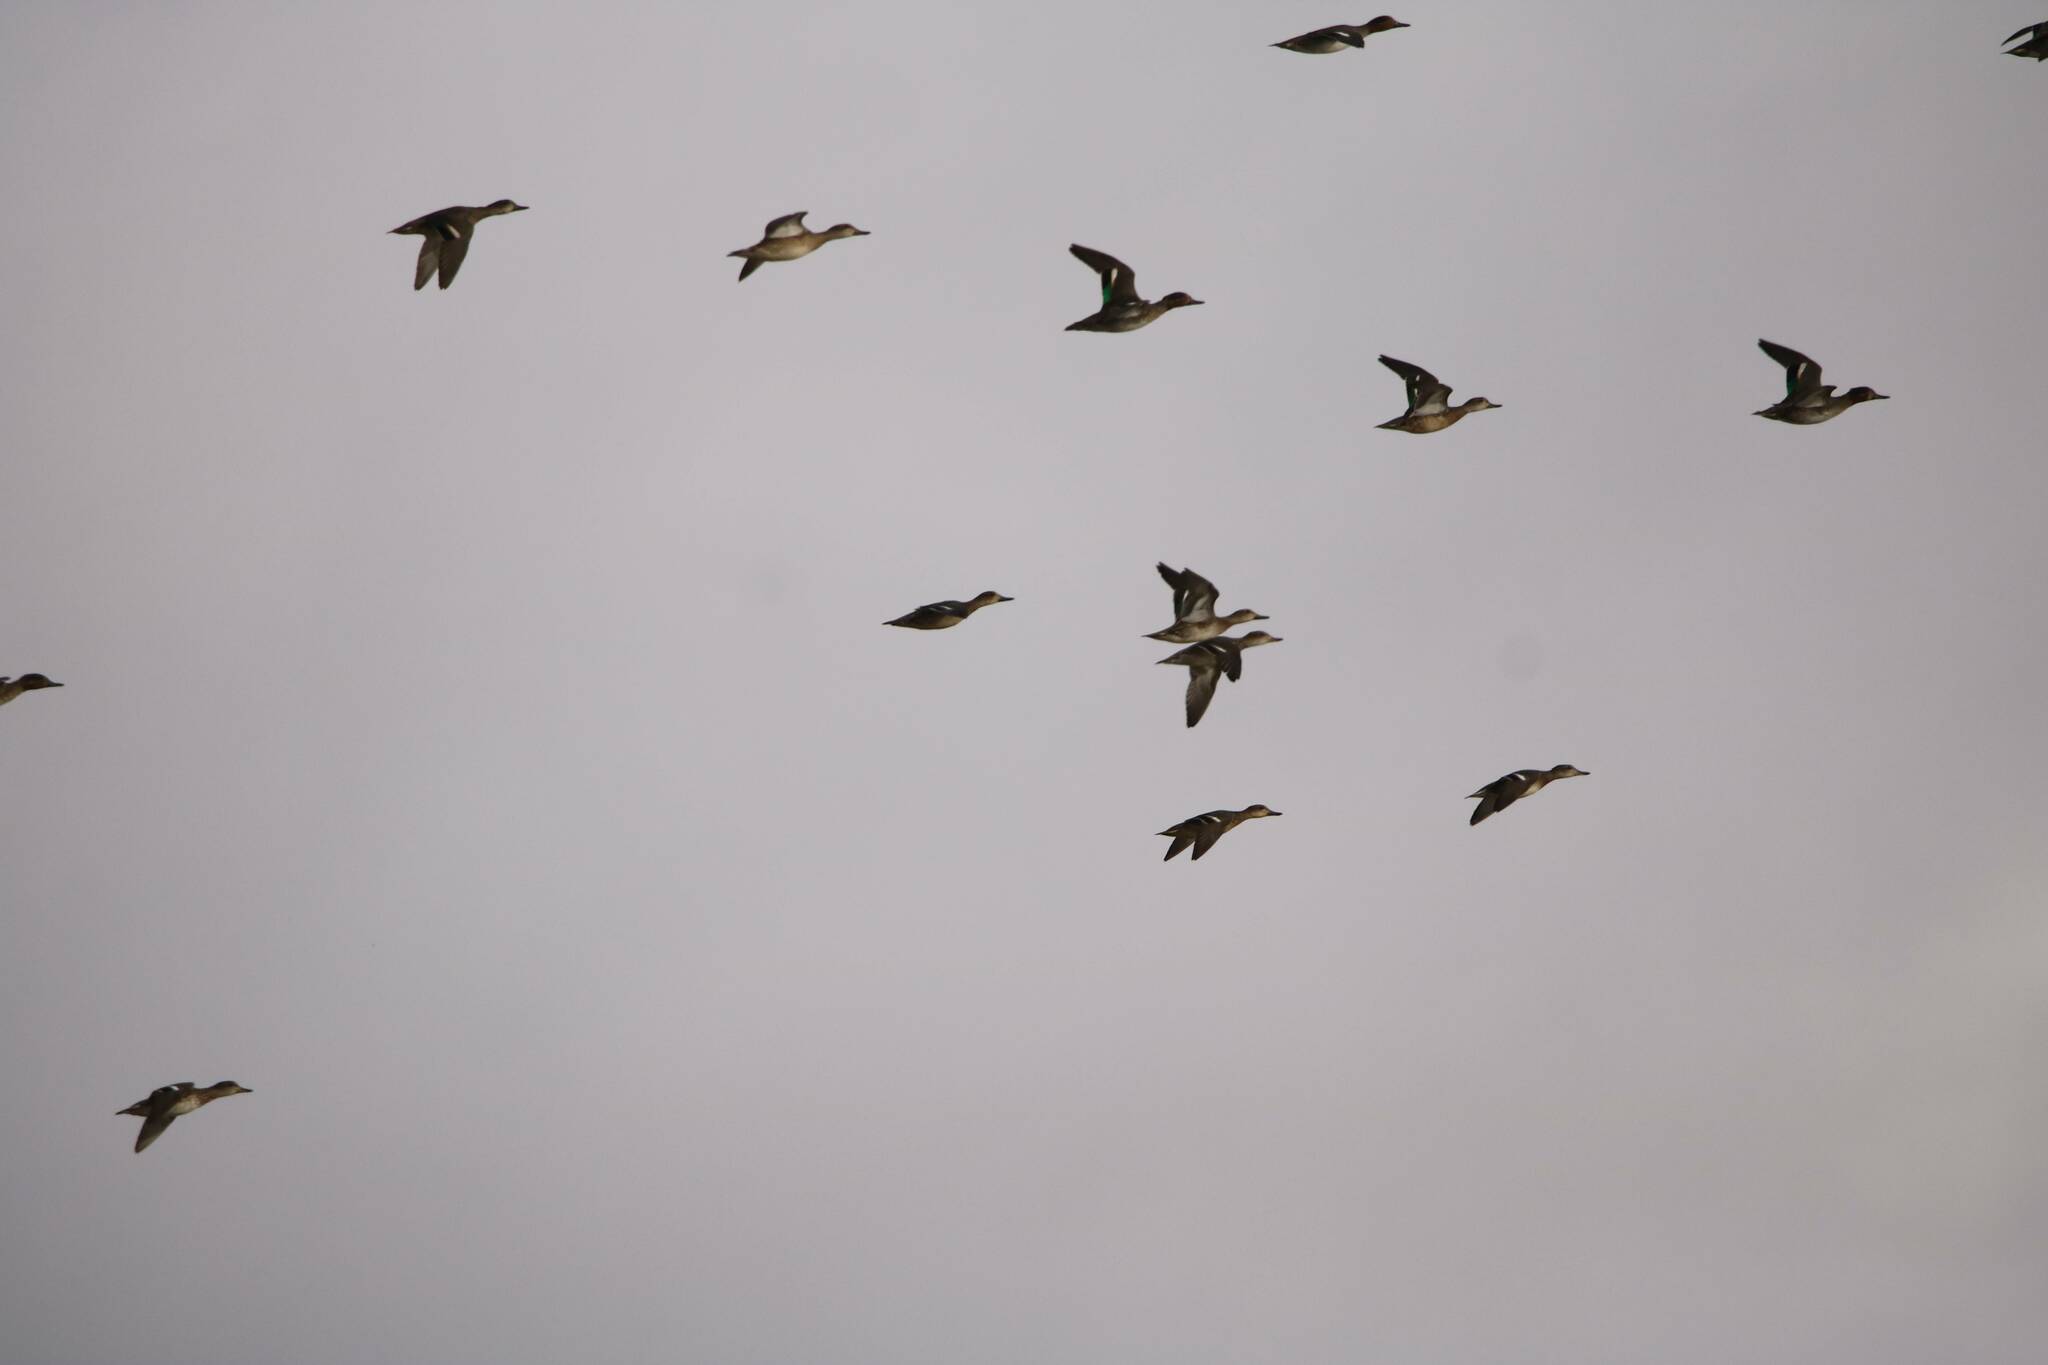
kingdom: Animalia
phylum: Chordata
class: Aves
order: Anseriformes
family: Anatidae
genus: Anas
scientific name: Anas crecca
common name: Eurasian teal
